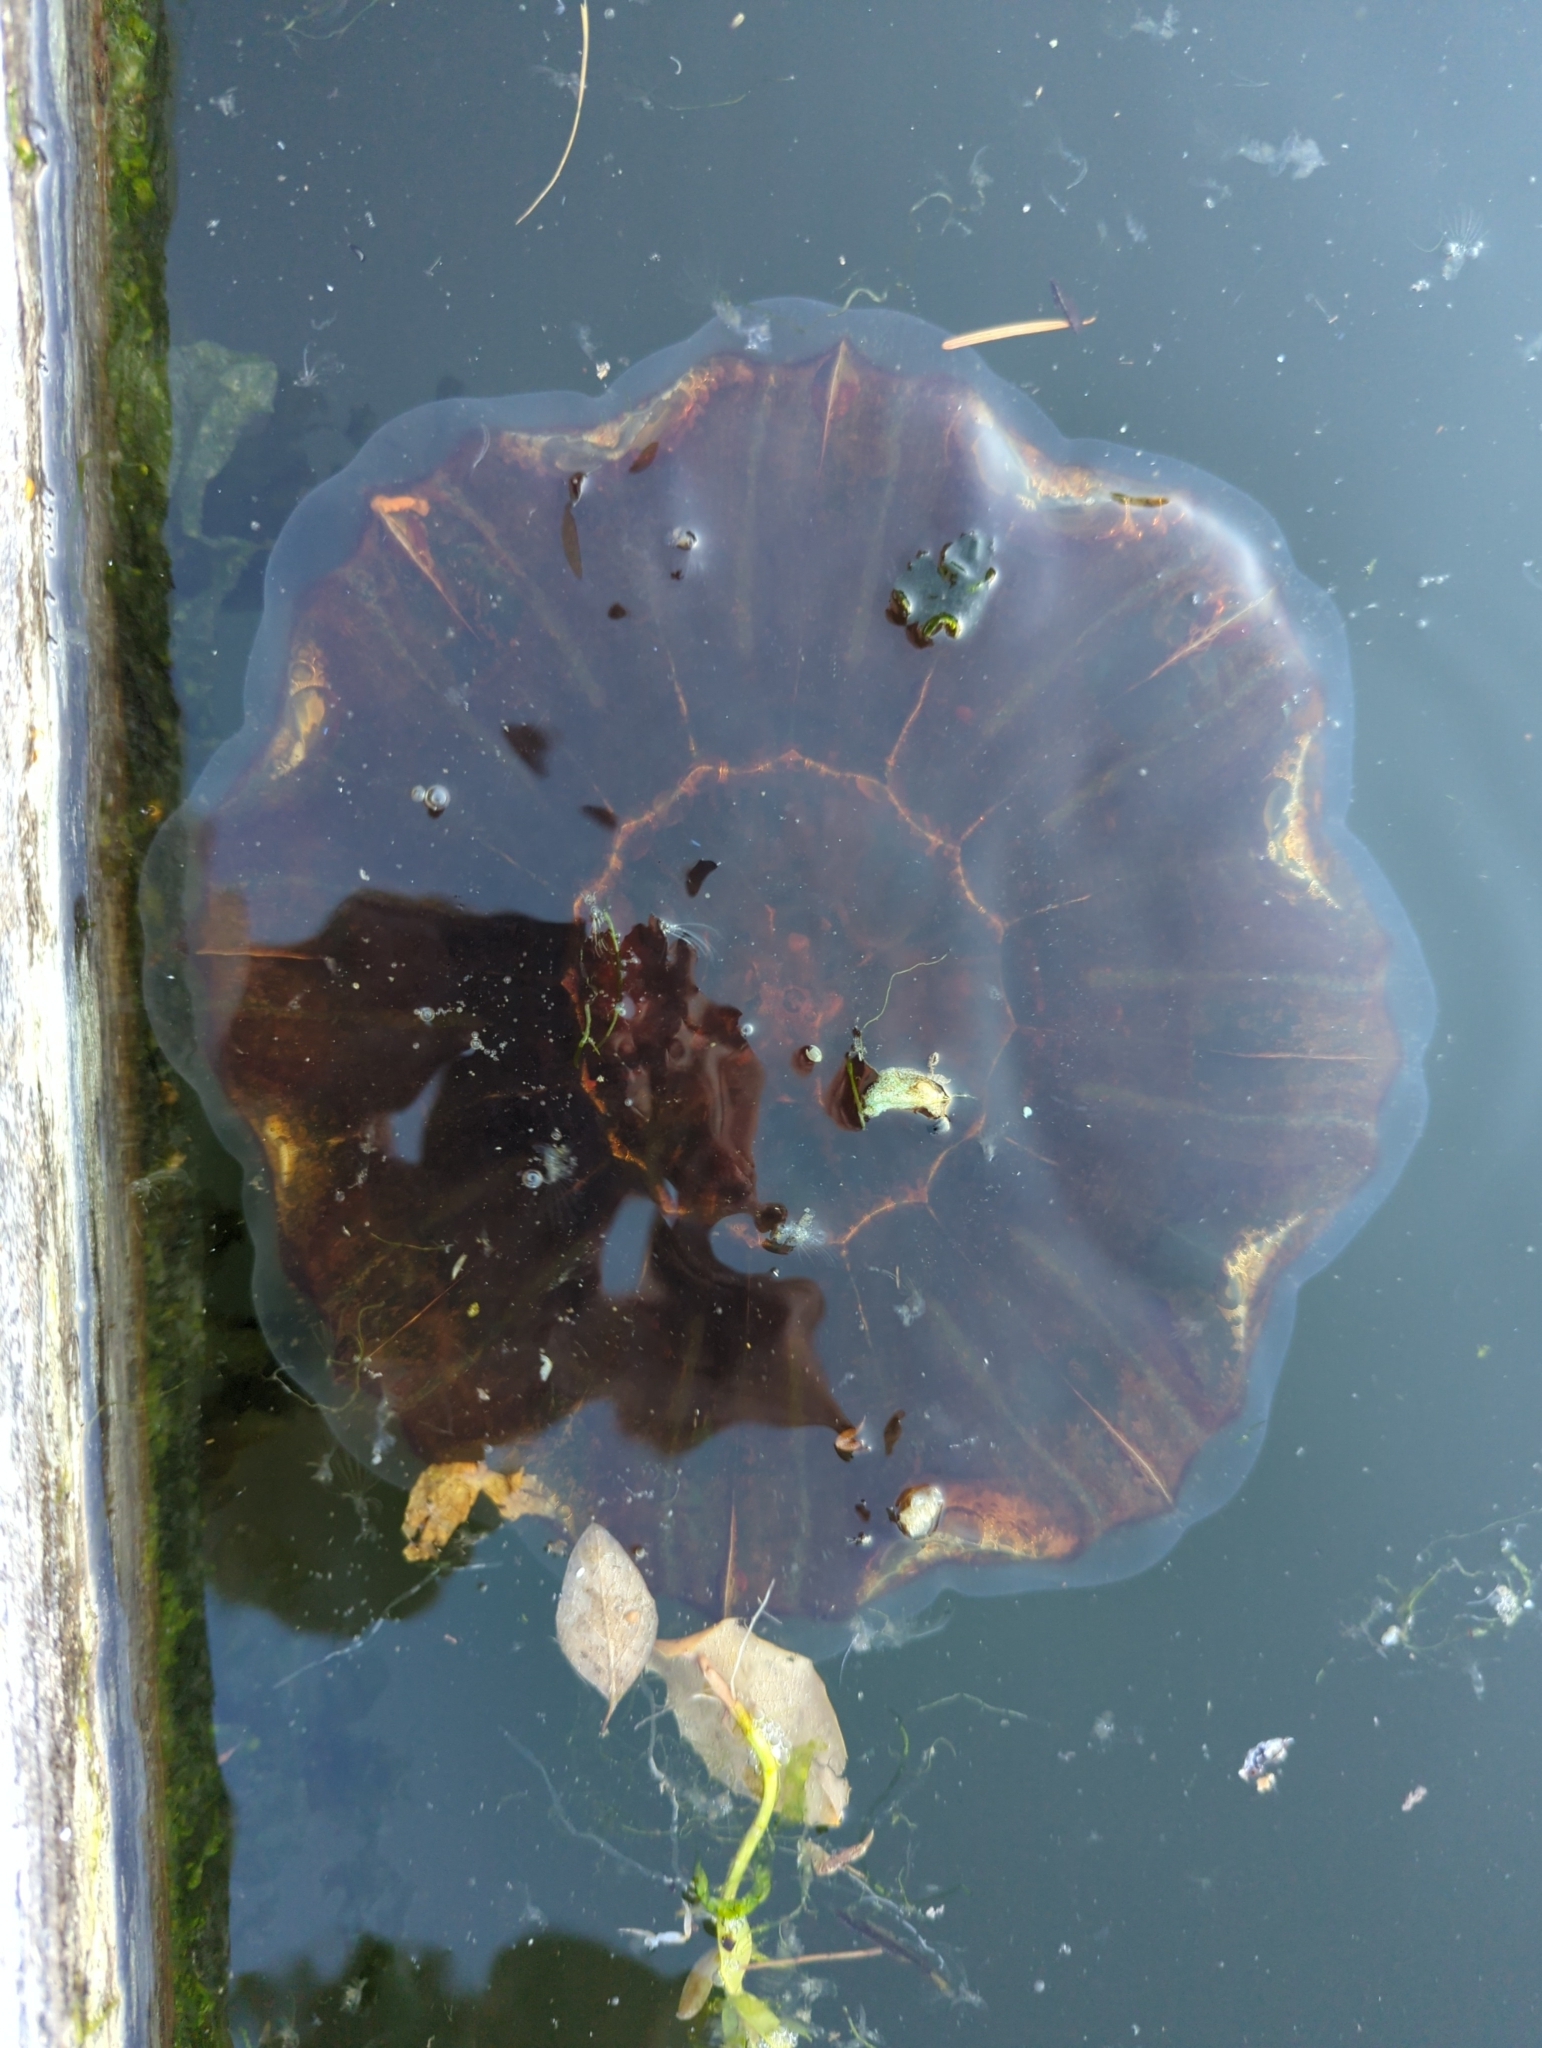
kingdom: Animalia
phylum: Cnidaria
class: Scyphozoa
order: Semaeostomeae
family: Cyaneidae
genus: Cyanea
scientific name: Cyanea ferruginea
